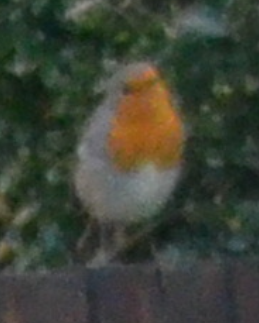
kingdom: Animalia
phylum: Chordata
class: Aves
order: Passeriformes
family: Muscicapidae
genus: Erithacus
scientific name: Erithacus rubecula
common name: European robin
